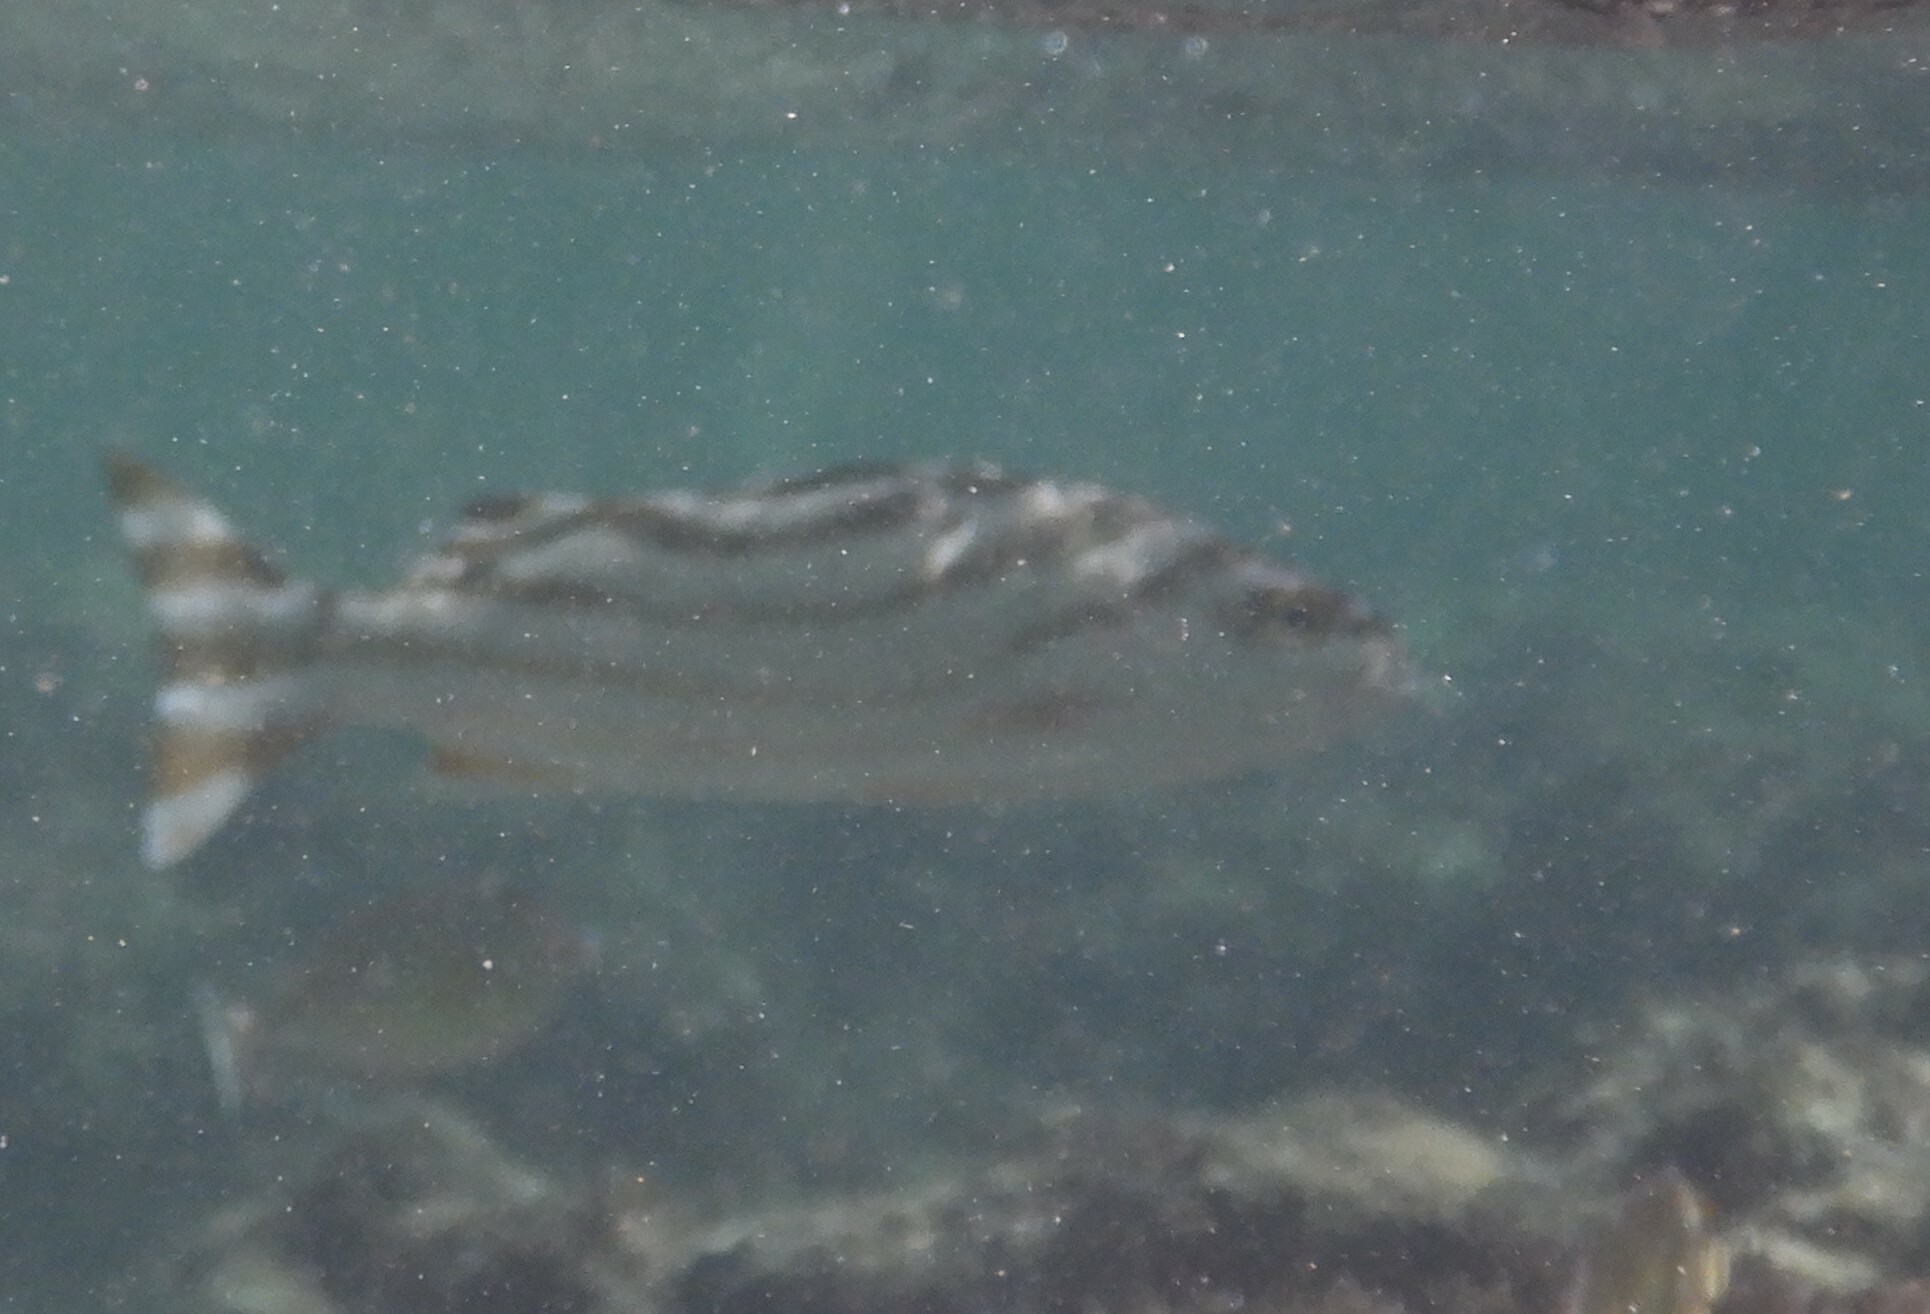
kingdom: Animalia
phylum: Chordata
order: Perciformes
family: Terapontidae
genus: Terapon
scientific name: Terapon jarbua
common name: Jarbua terapon
